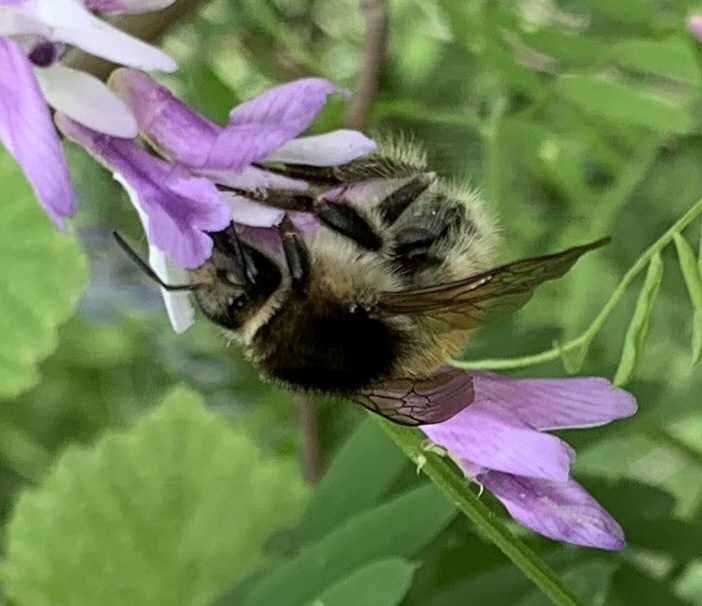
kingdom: Animalia
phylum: Arthropoda
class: Insecta
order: Hymenoptera
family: Apidae
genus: Bombus
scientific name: Bombus humilis
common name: Brown-banded carder-bee
